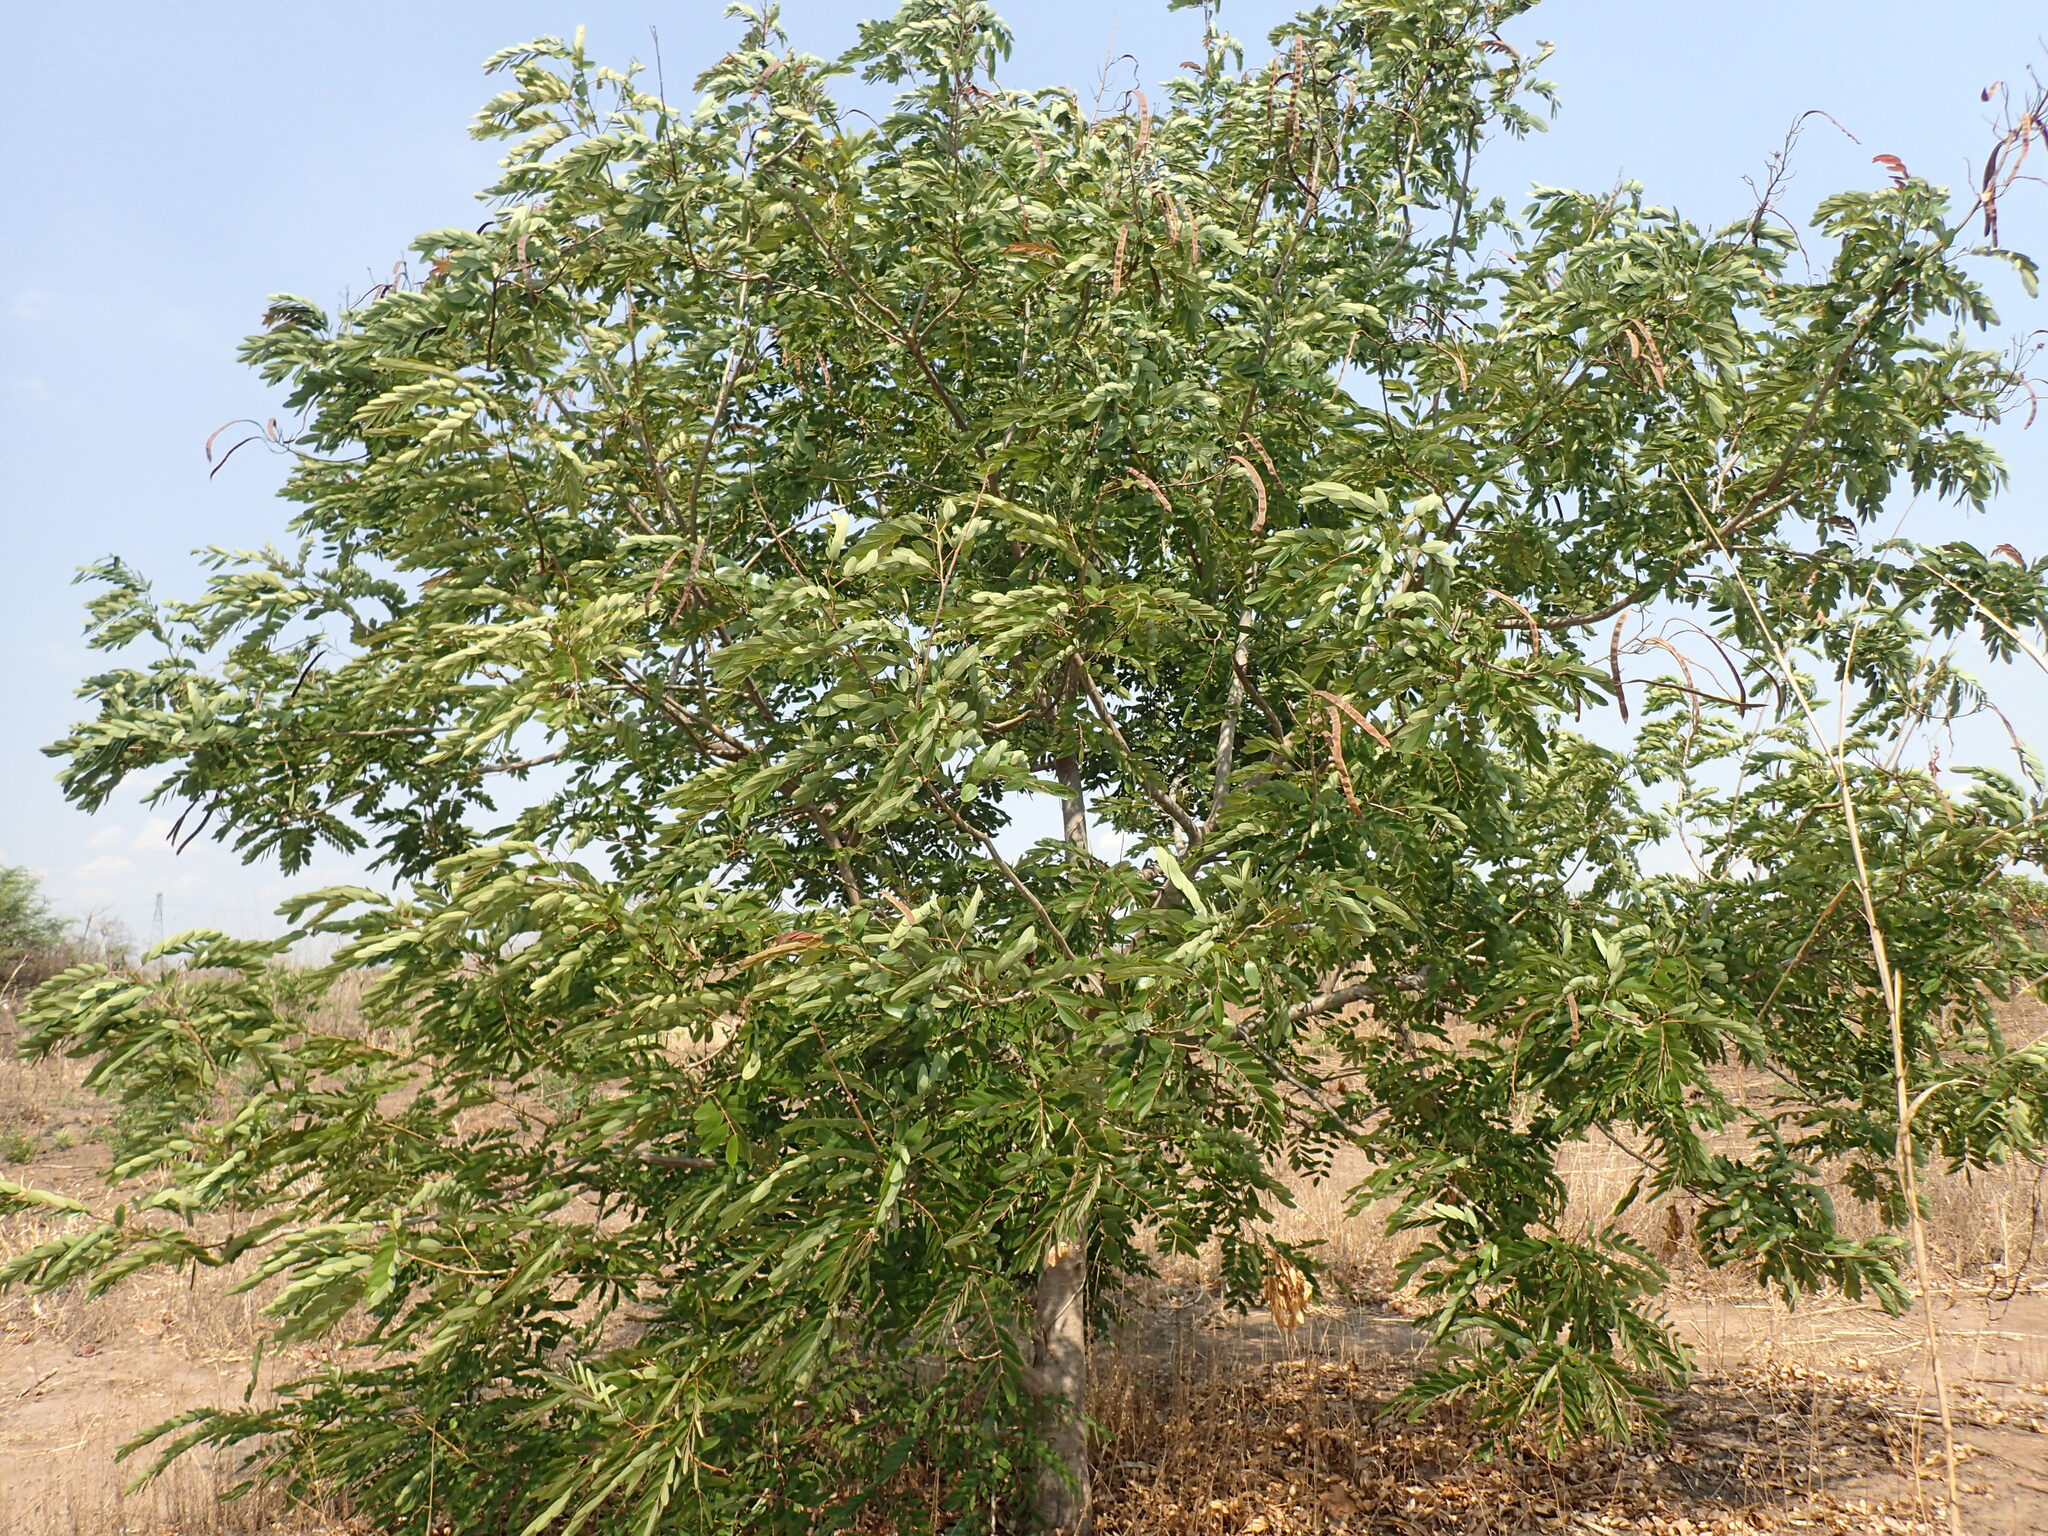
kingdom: Plantae
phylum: Tracheophyta
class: Magnoliopsida
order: Fabales
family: Fabaceae
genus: Senna
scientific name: Senna siamea
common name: Siamese cassia
